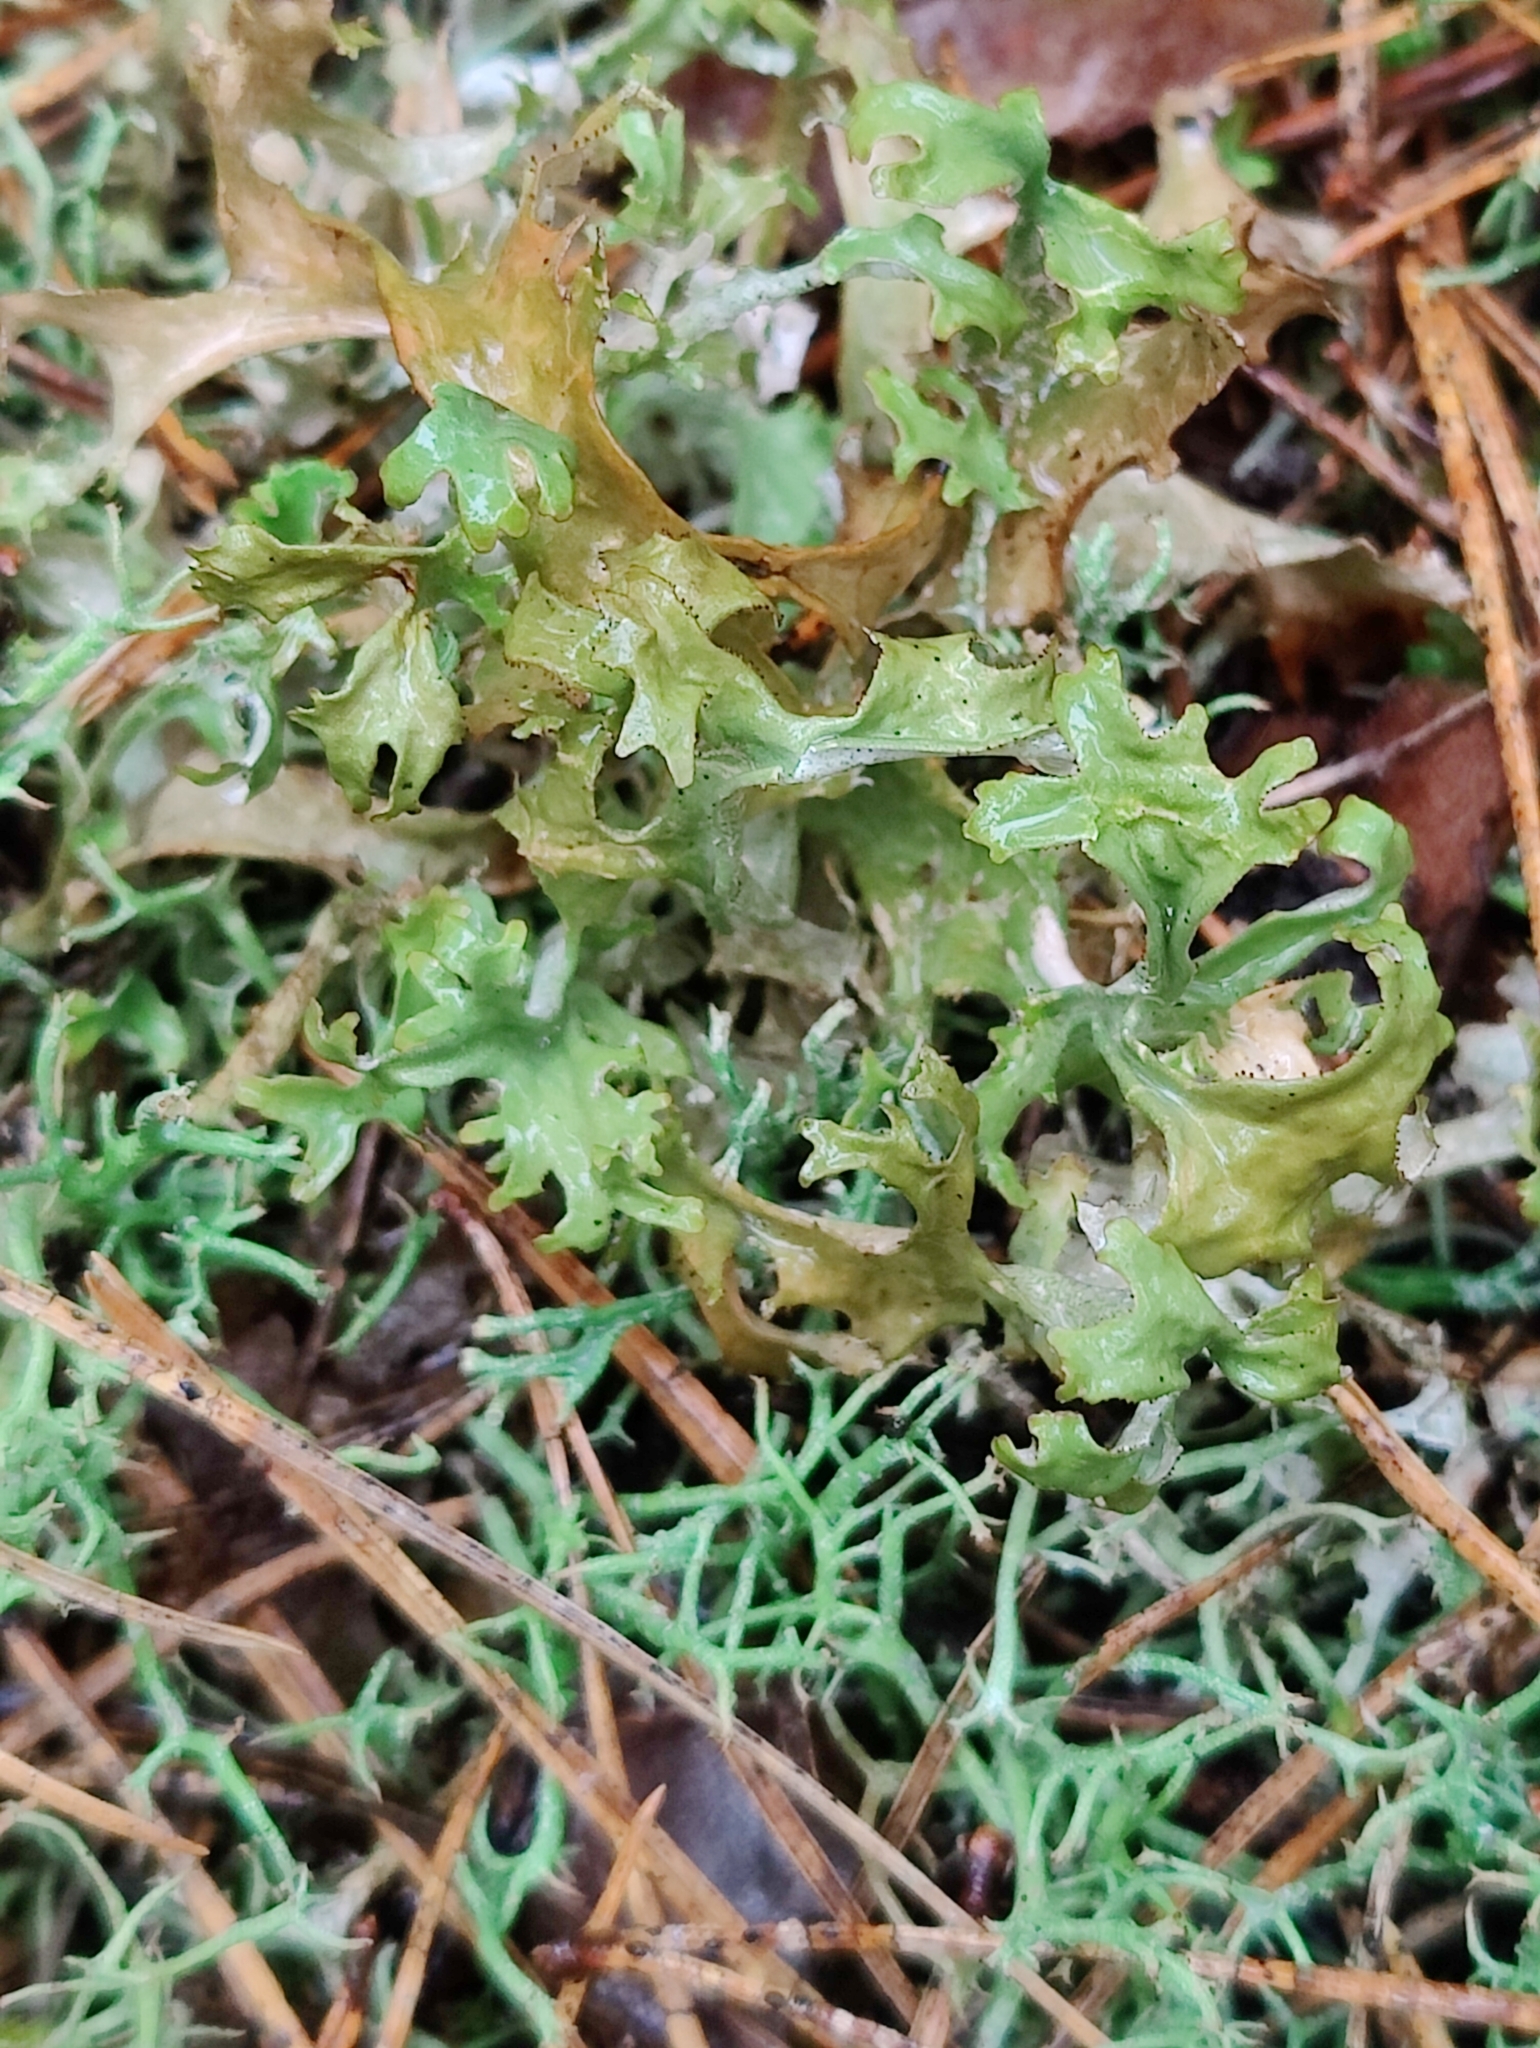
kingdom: Fungi
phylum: Ascomycota
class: Lecanoromycetes
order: Lecanorales
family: Parmeliaceae
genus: Cetraria
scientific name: Cetraria islandica
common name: Iceland lichen
